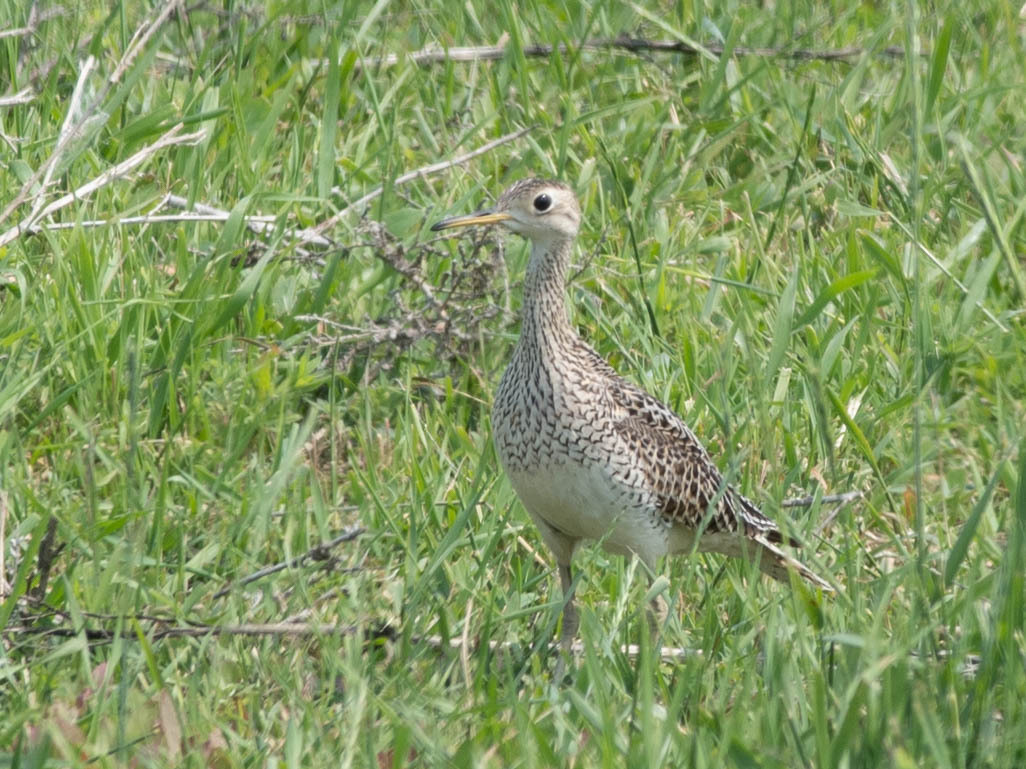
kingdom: Animalia
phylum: Chordata
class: Aves
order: Charadriiformes
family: Scolopacidae
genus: Bartramia
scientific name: Bartramia longicauda
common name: Upland sandpiper
